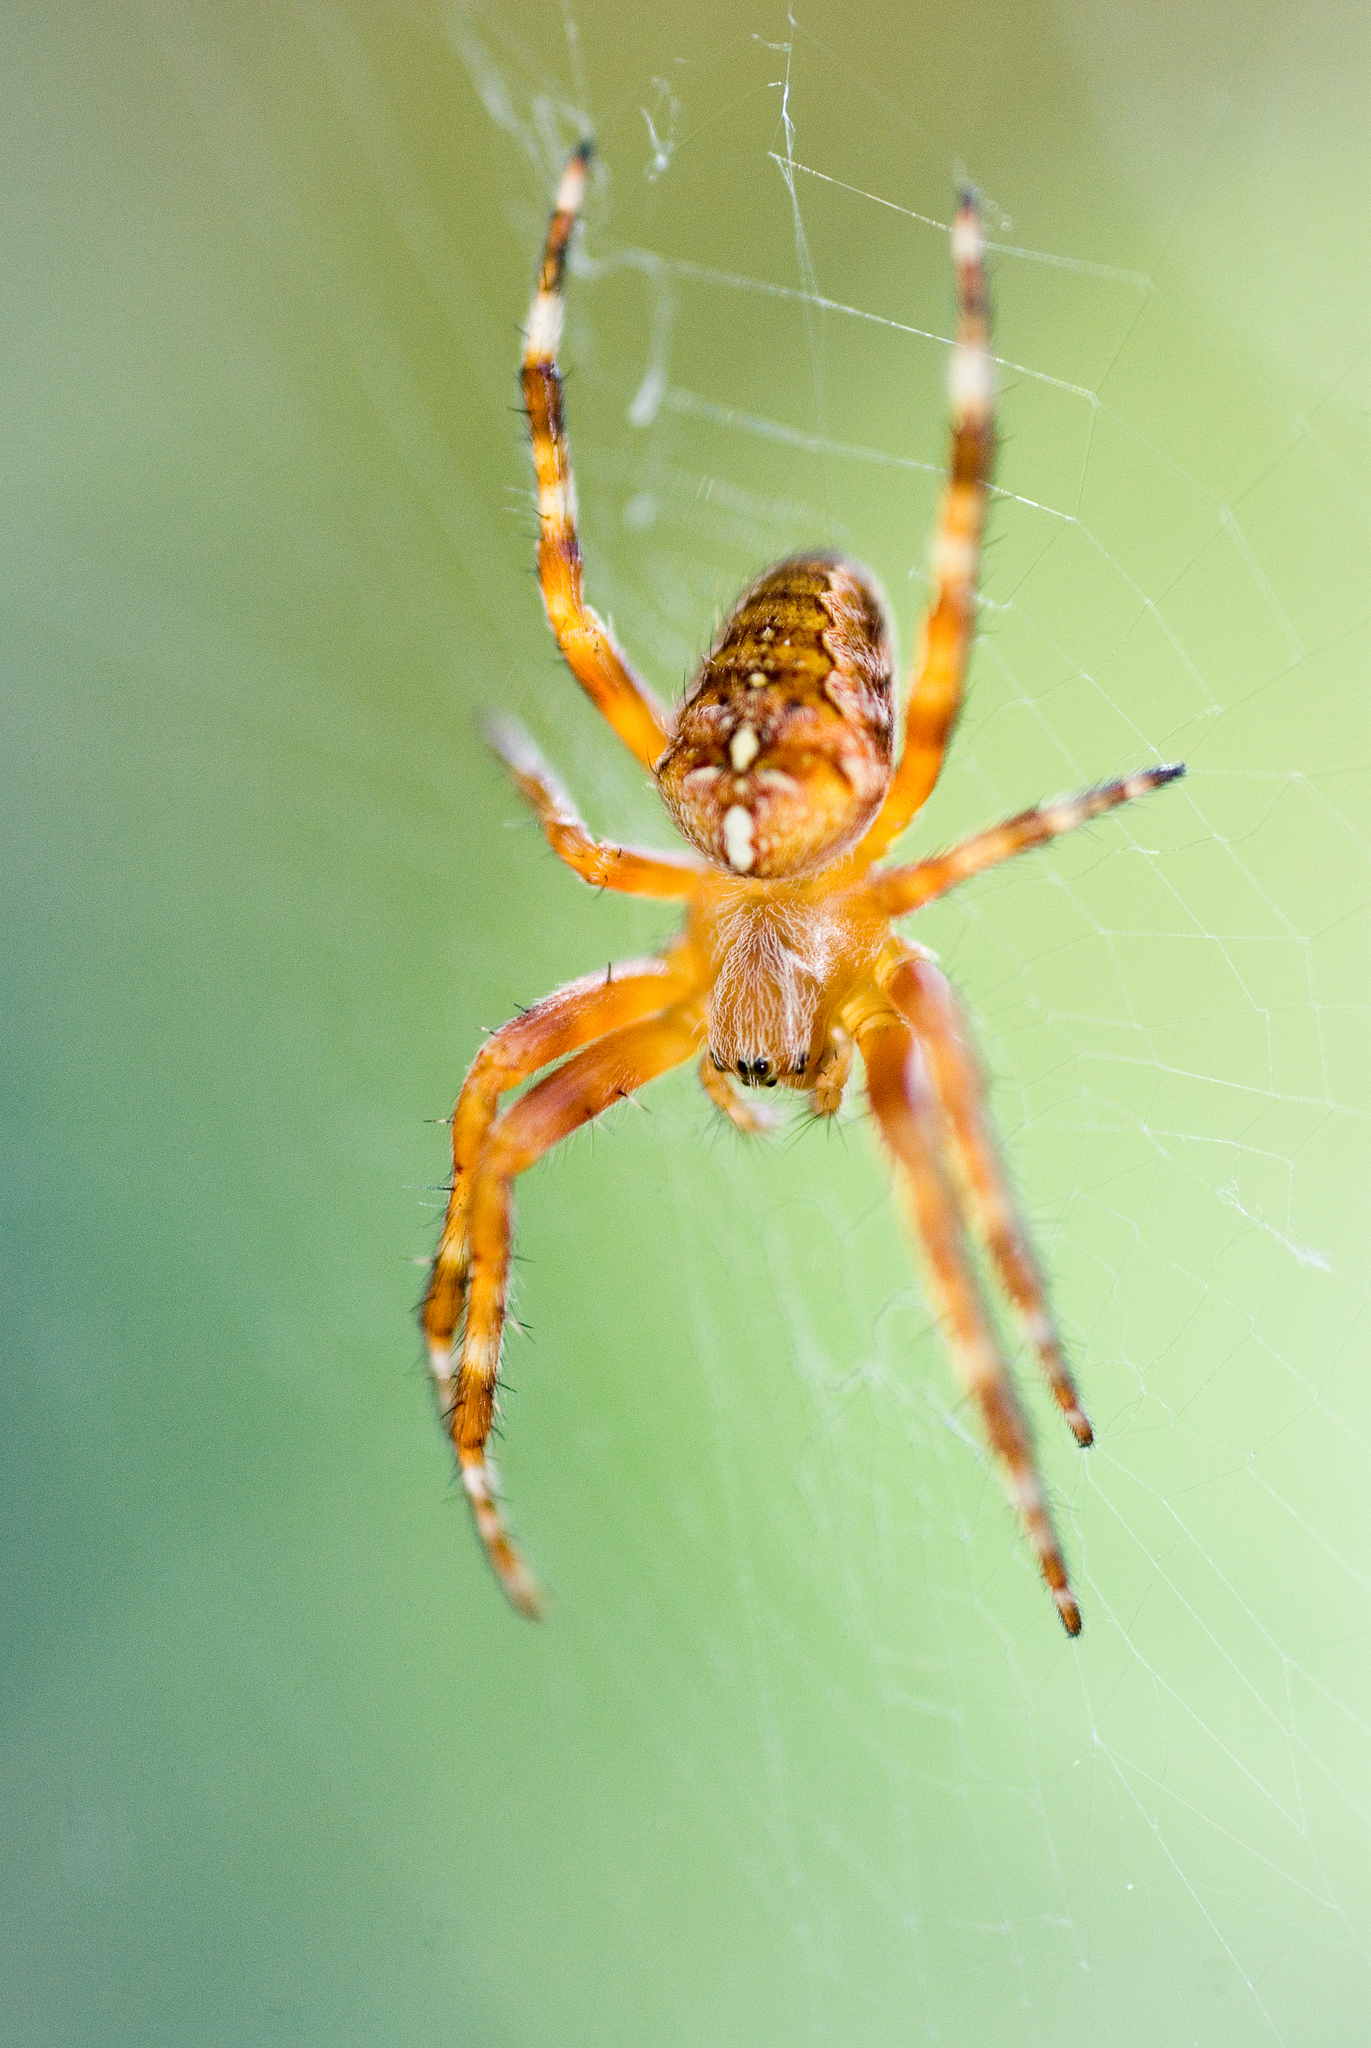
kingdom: Animalia
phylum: Arthropoda
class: Arachnida
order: Araneae
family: Araneidae
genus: Araneus
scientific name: Araneus diadematus
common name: Cross orbweaver
